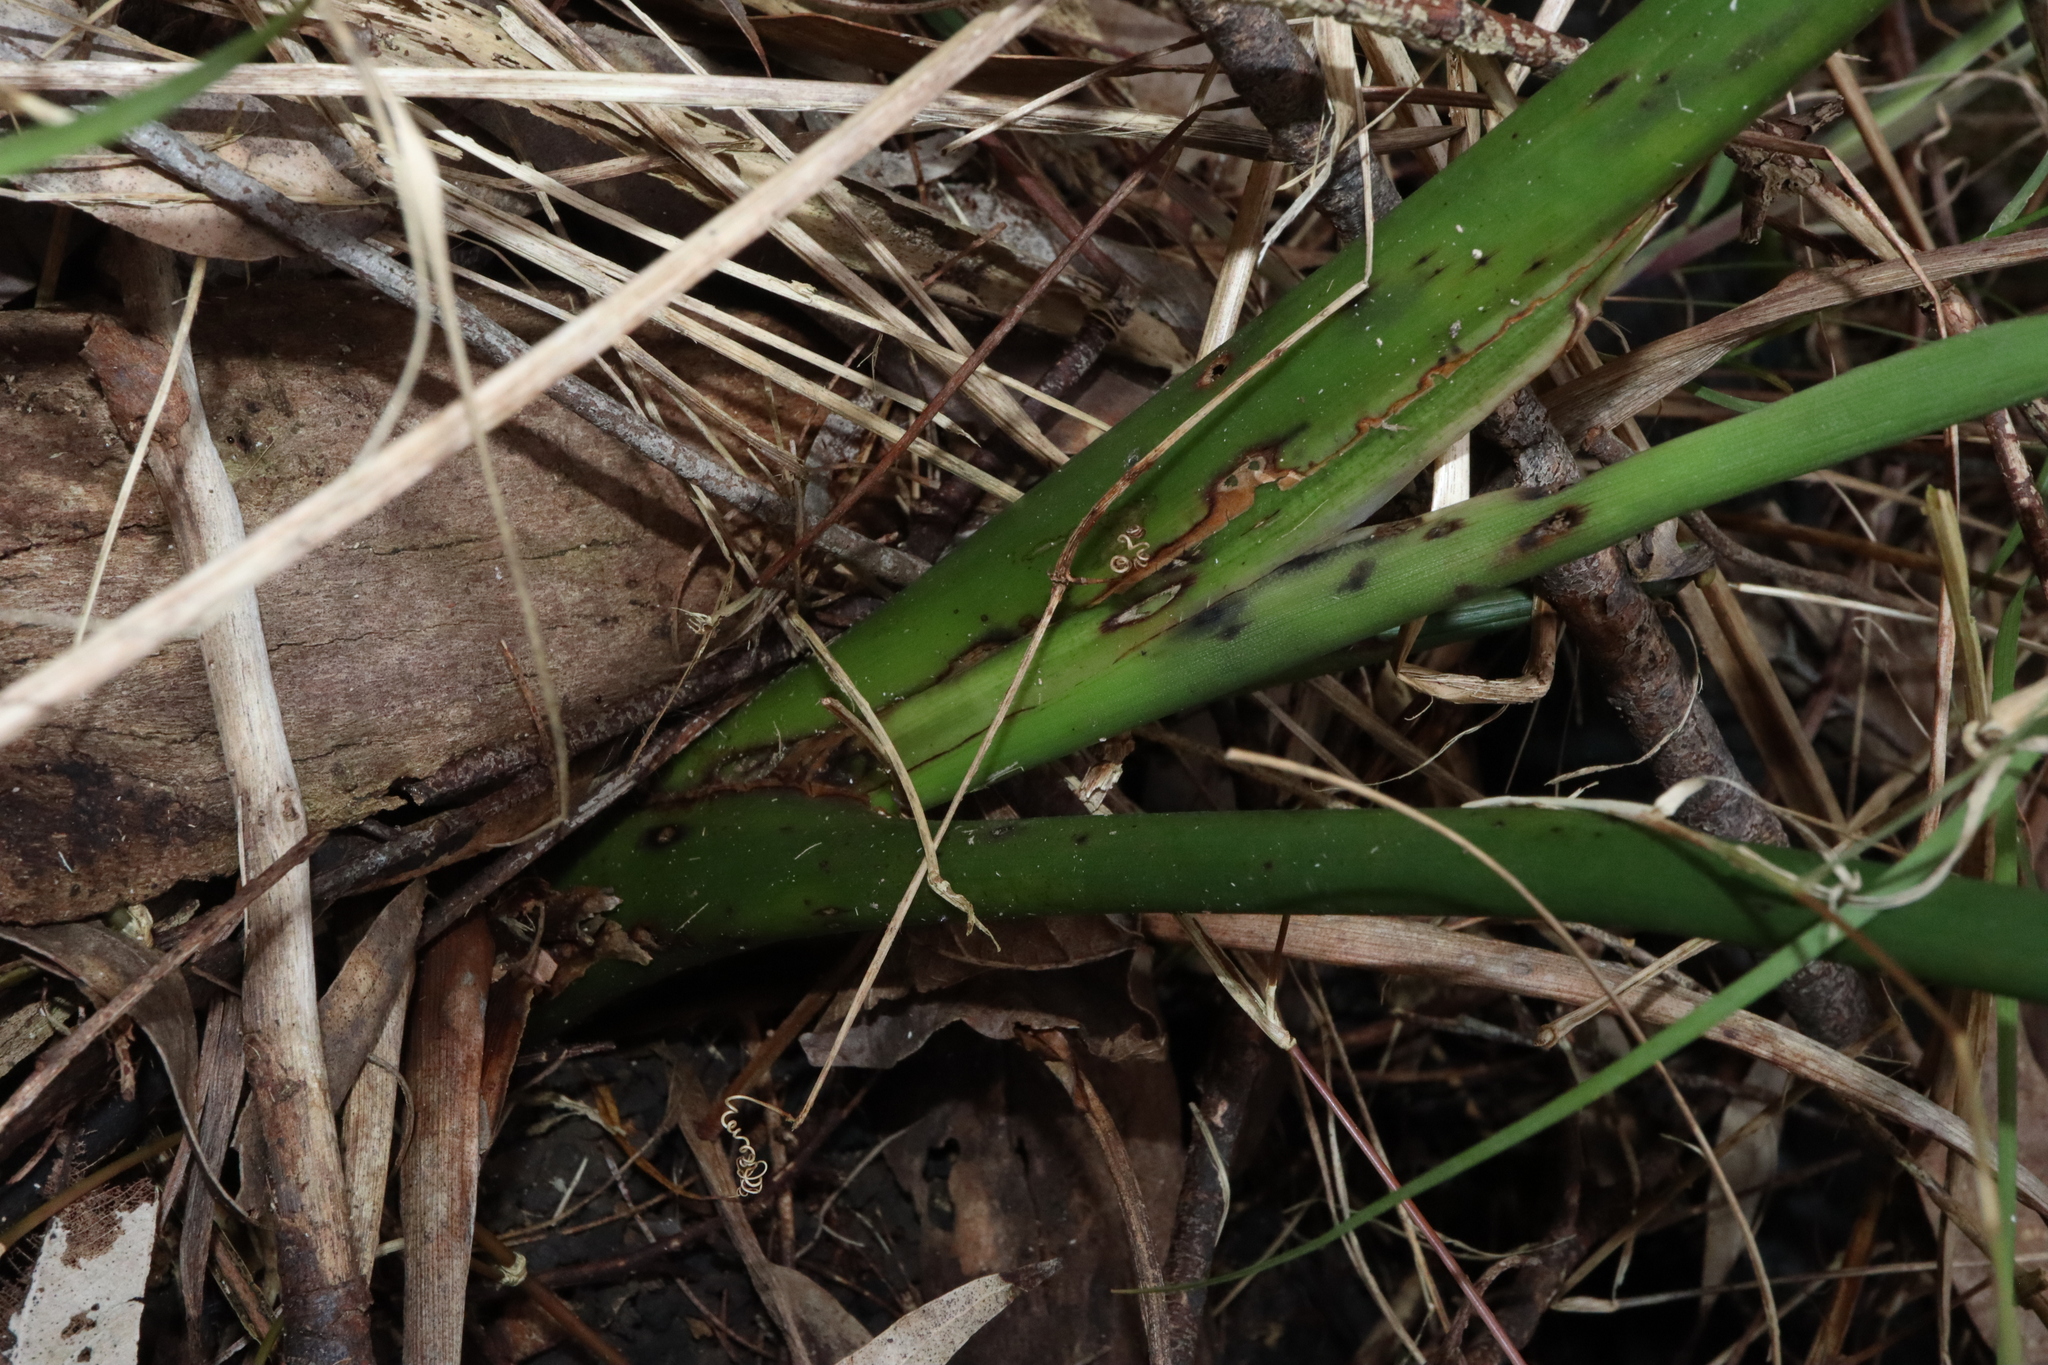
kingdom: Plantae
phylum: Tracheophyta
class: Liliopsida
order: Zingiberales
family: Strelitziaceae
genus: Strelitzia
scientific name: Strelitzia reginae
